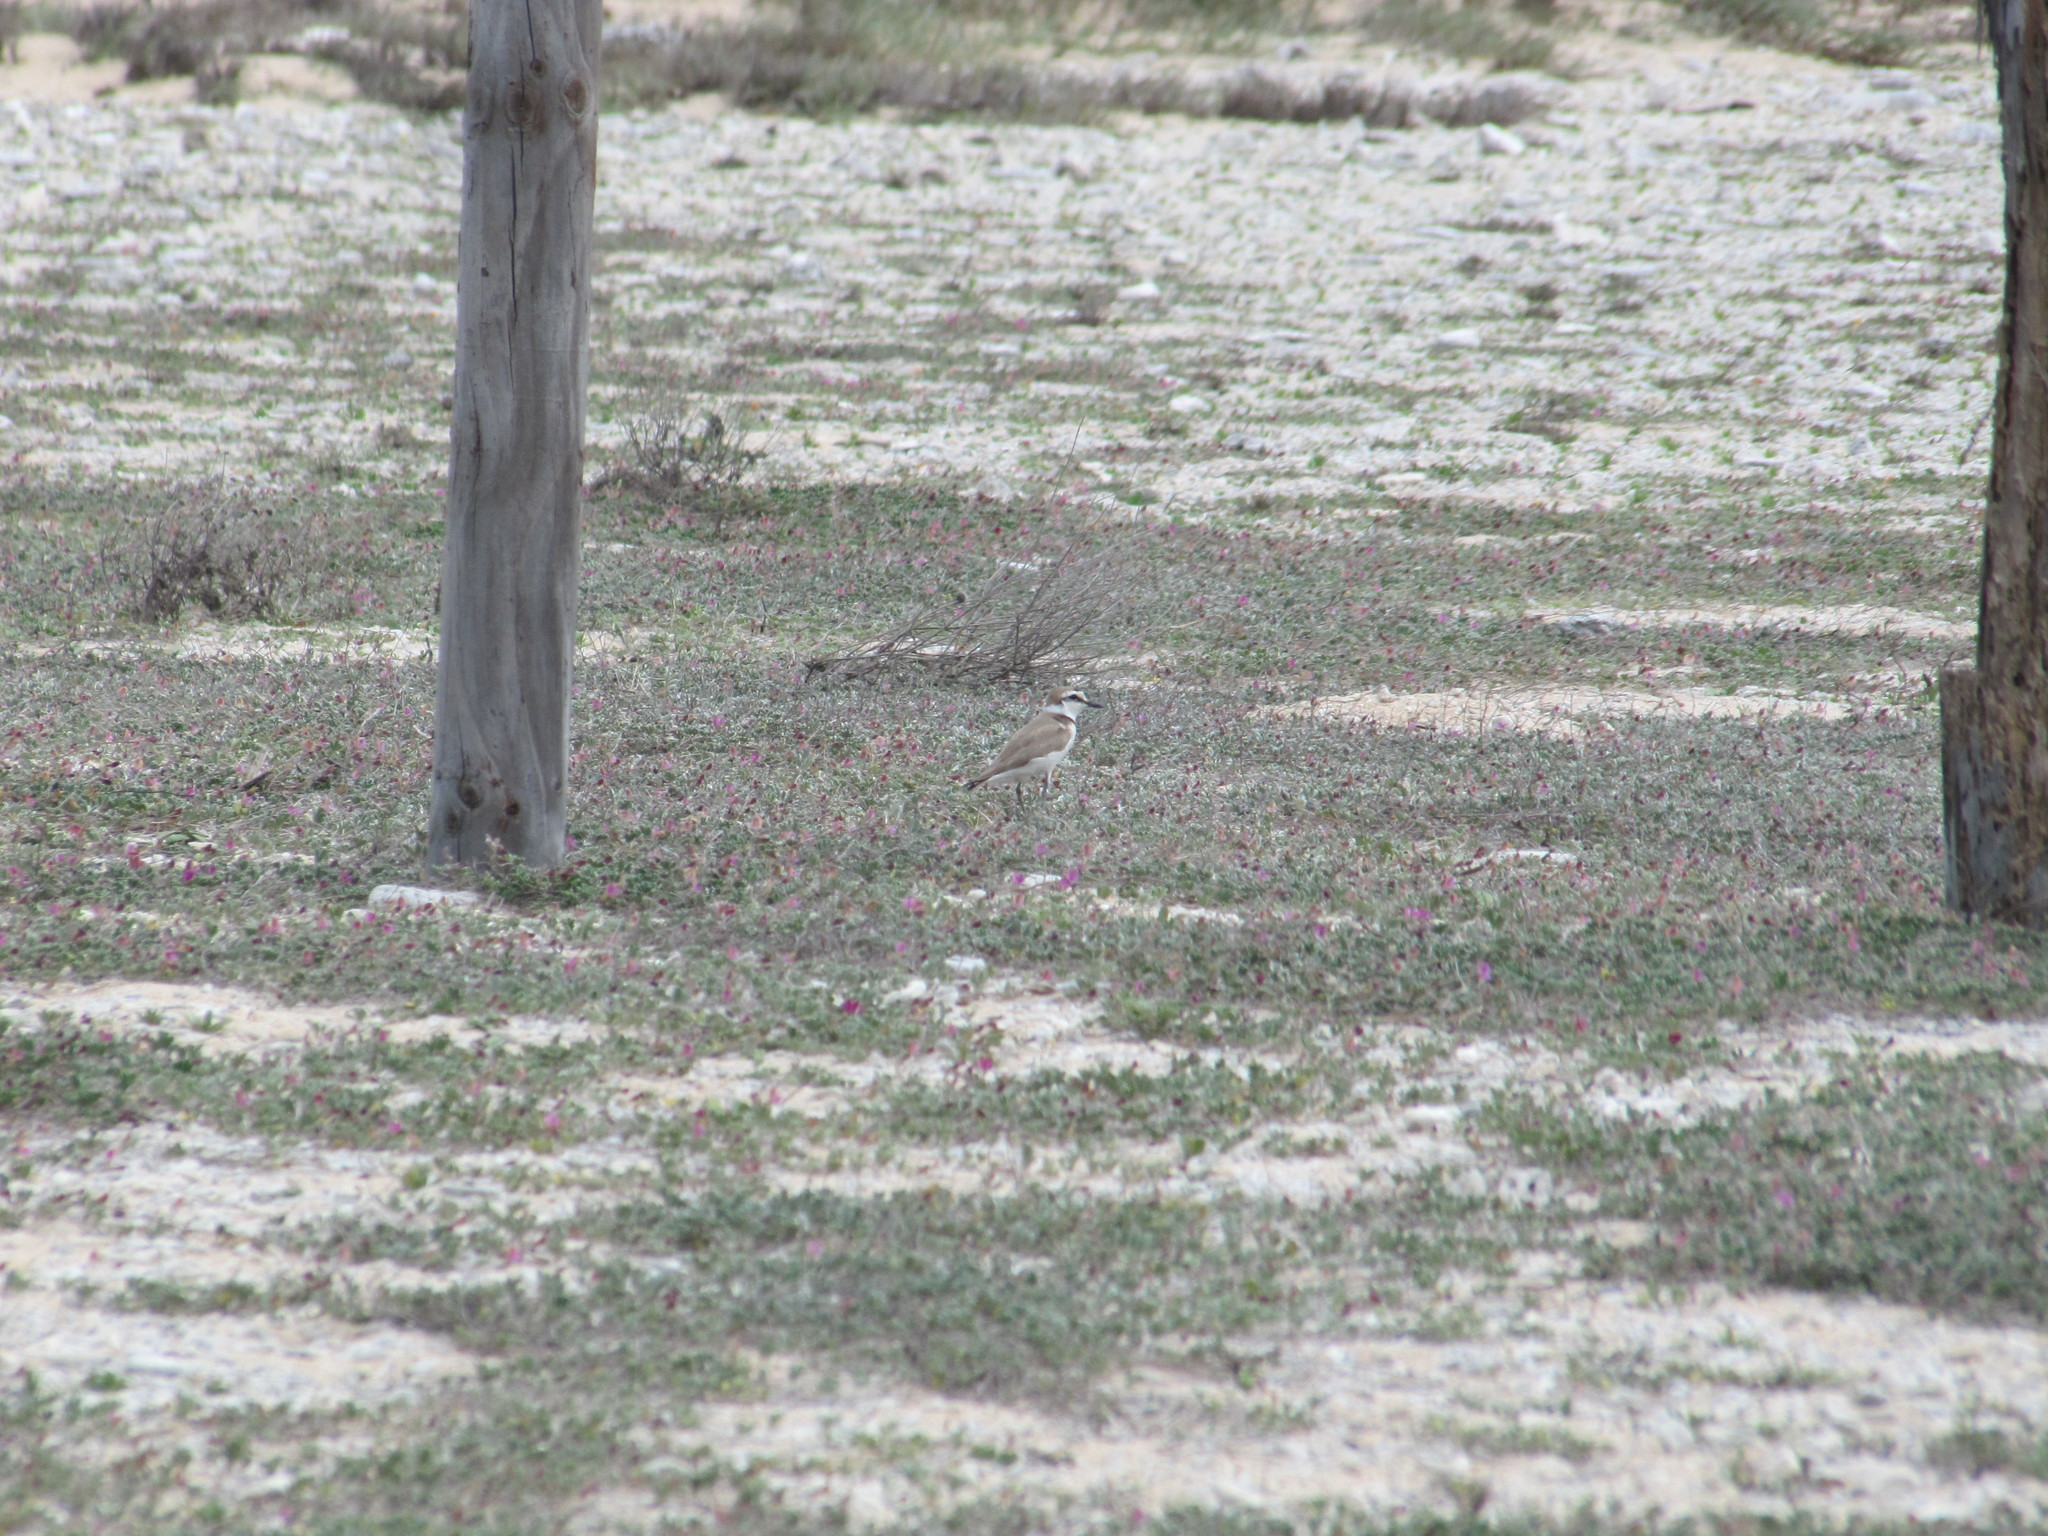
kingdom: Animalia
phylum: Chordata
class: Aves
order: Charadriiformes
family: Charadriidae
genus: Charadrius
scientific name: Charadrius alexandrinus
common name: Kentish plover
